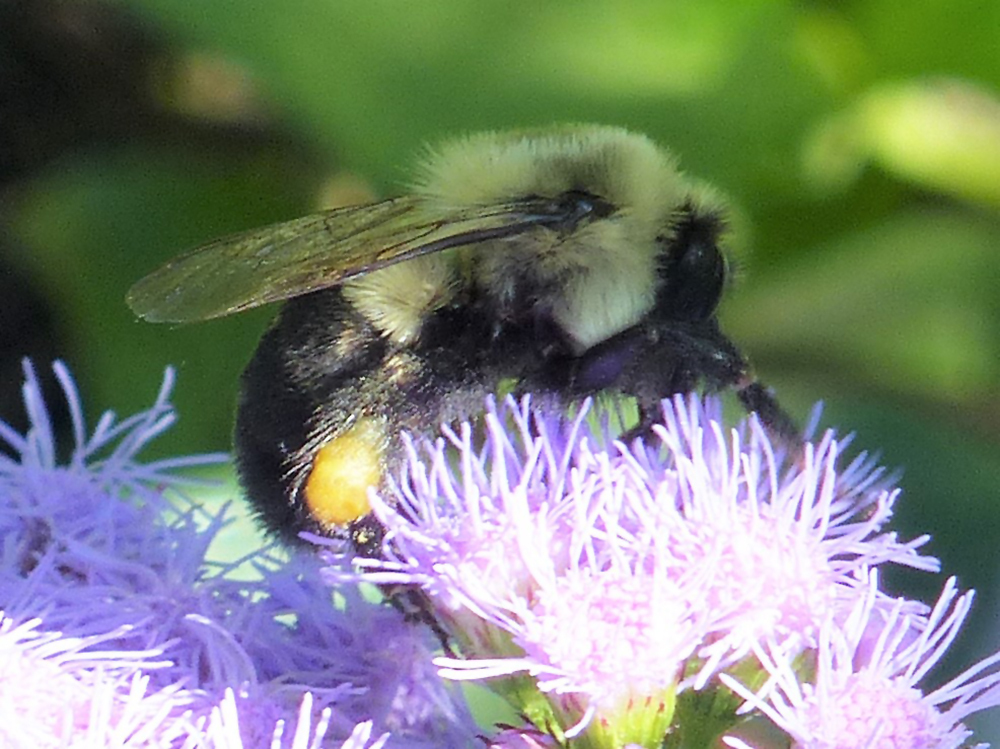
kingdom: Animalia
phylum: Arthropoda
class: Insecta
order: Hymenoptera
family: Apidae
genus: Bombus
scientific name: Bombus impatiens
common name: Common eastern bumble bee
